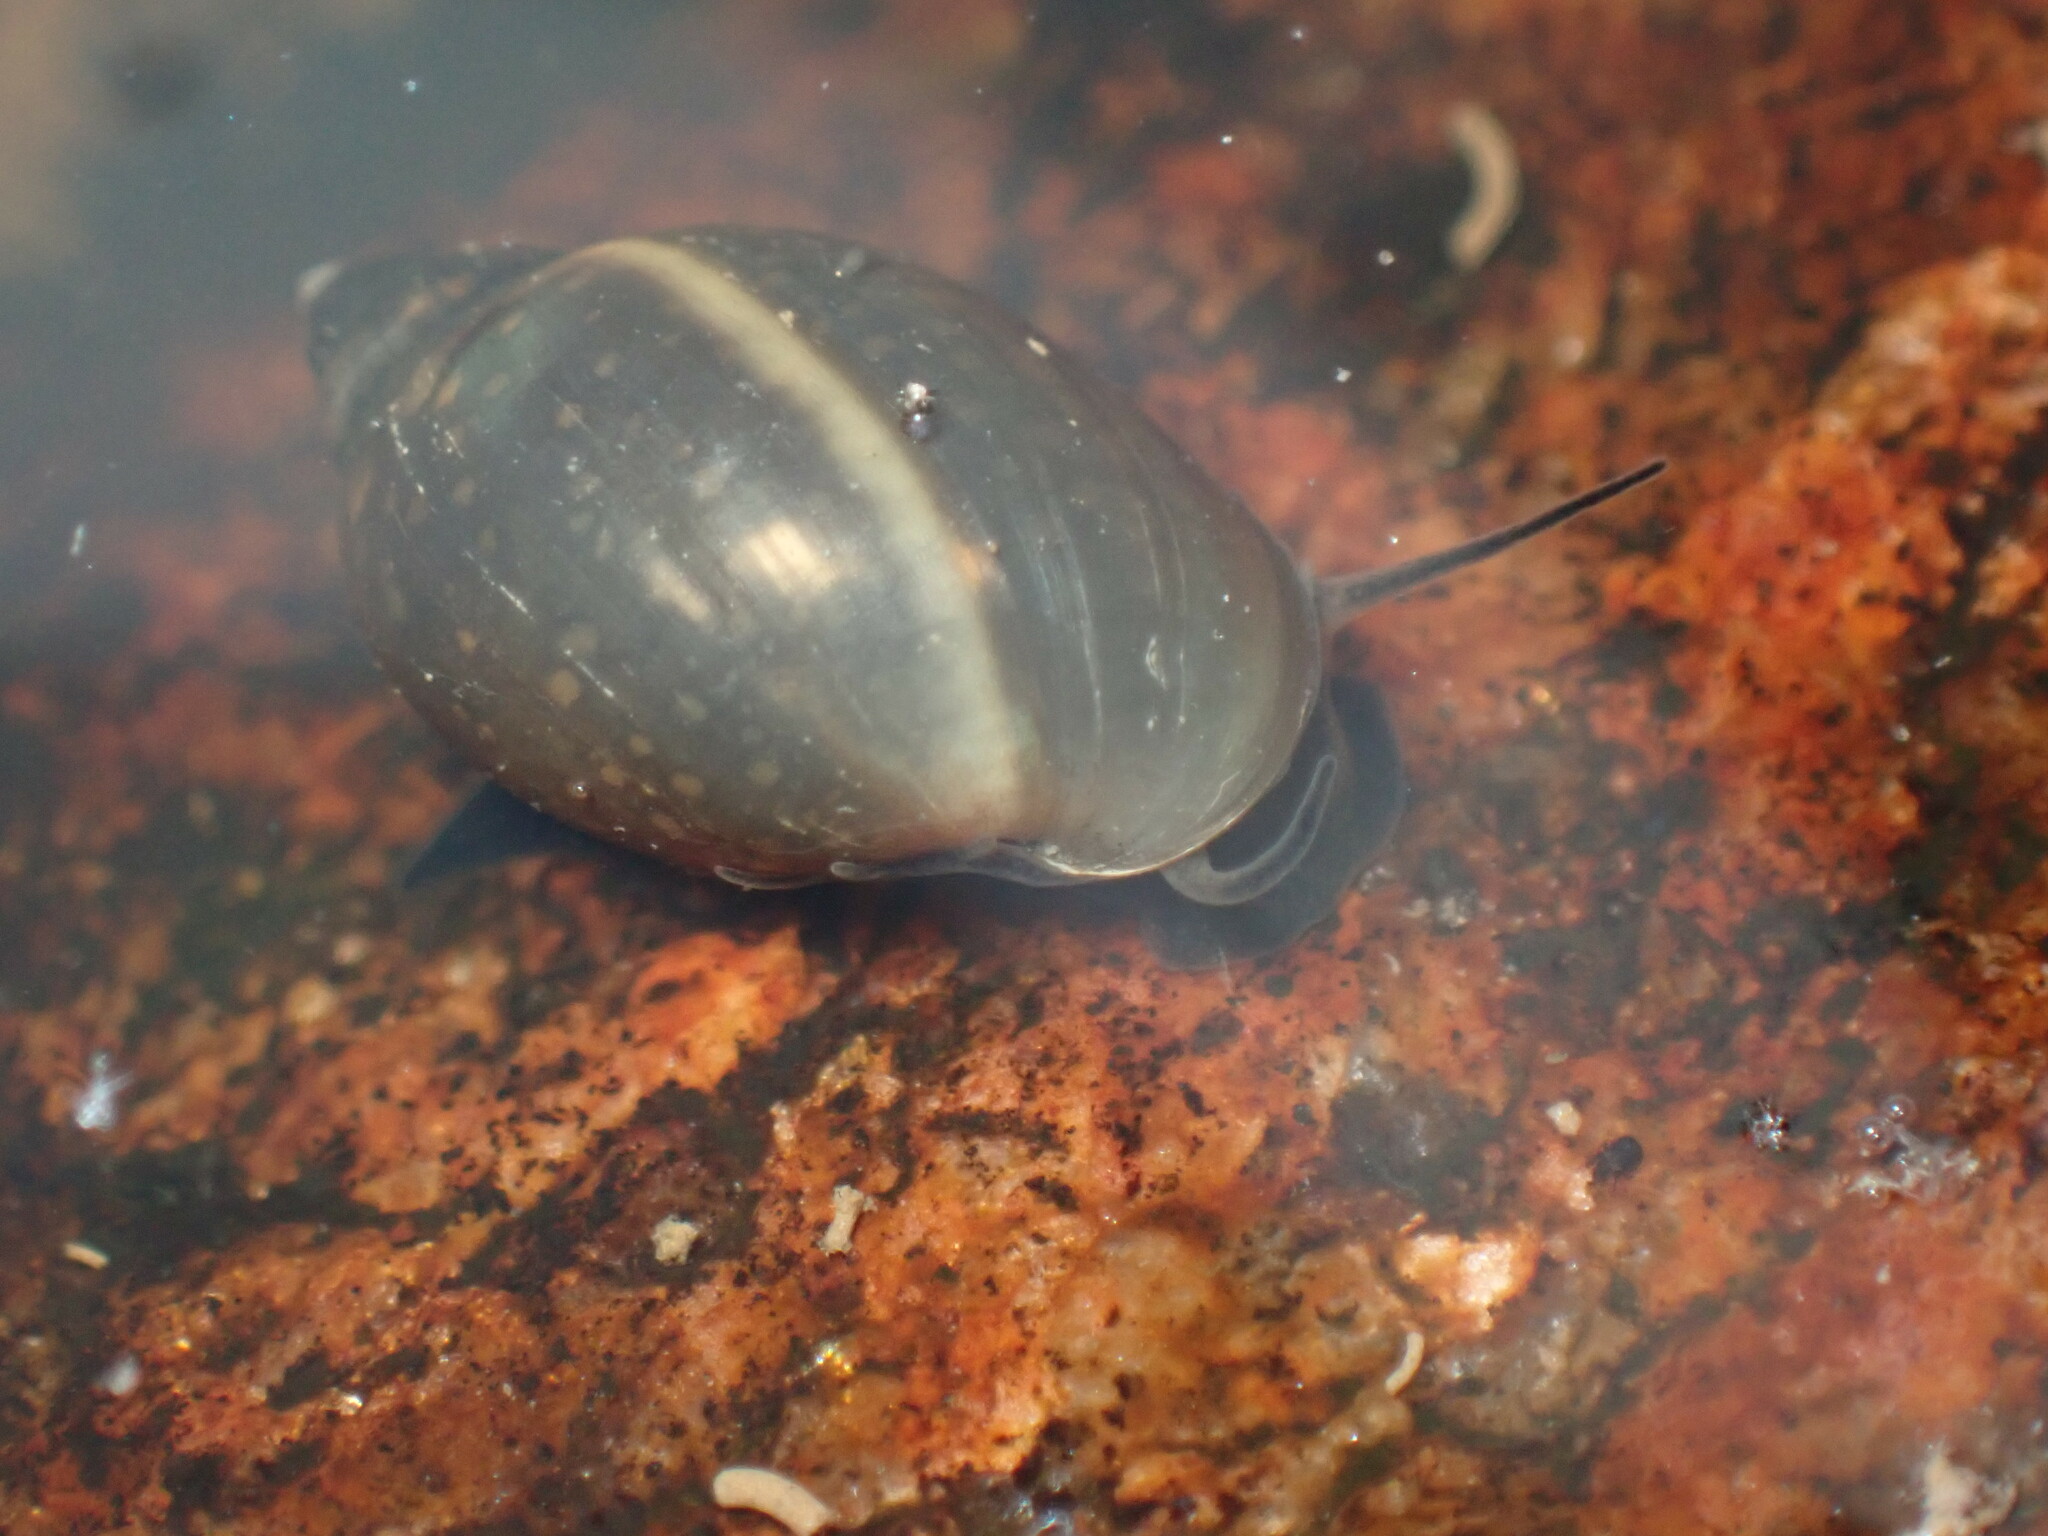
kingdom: Animalia
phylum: Mollusca
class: Gastropoda
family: Physidae
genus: Physella
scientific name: Physella acuta
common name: European physa
